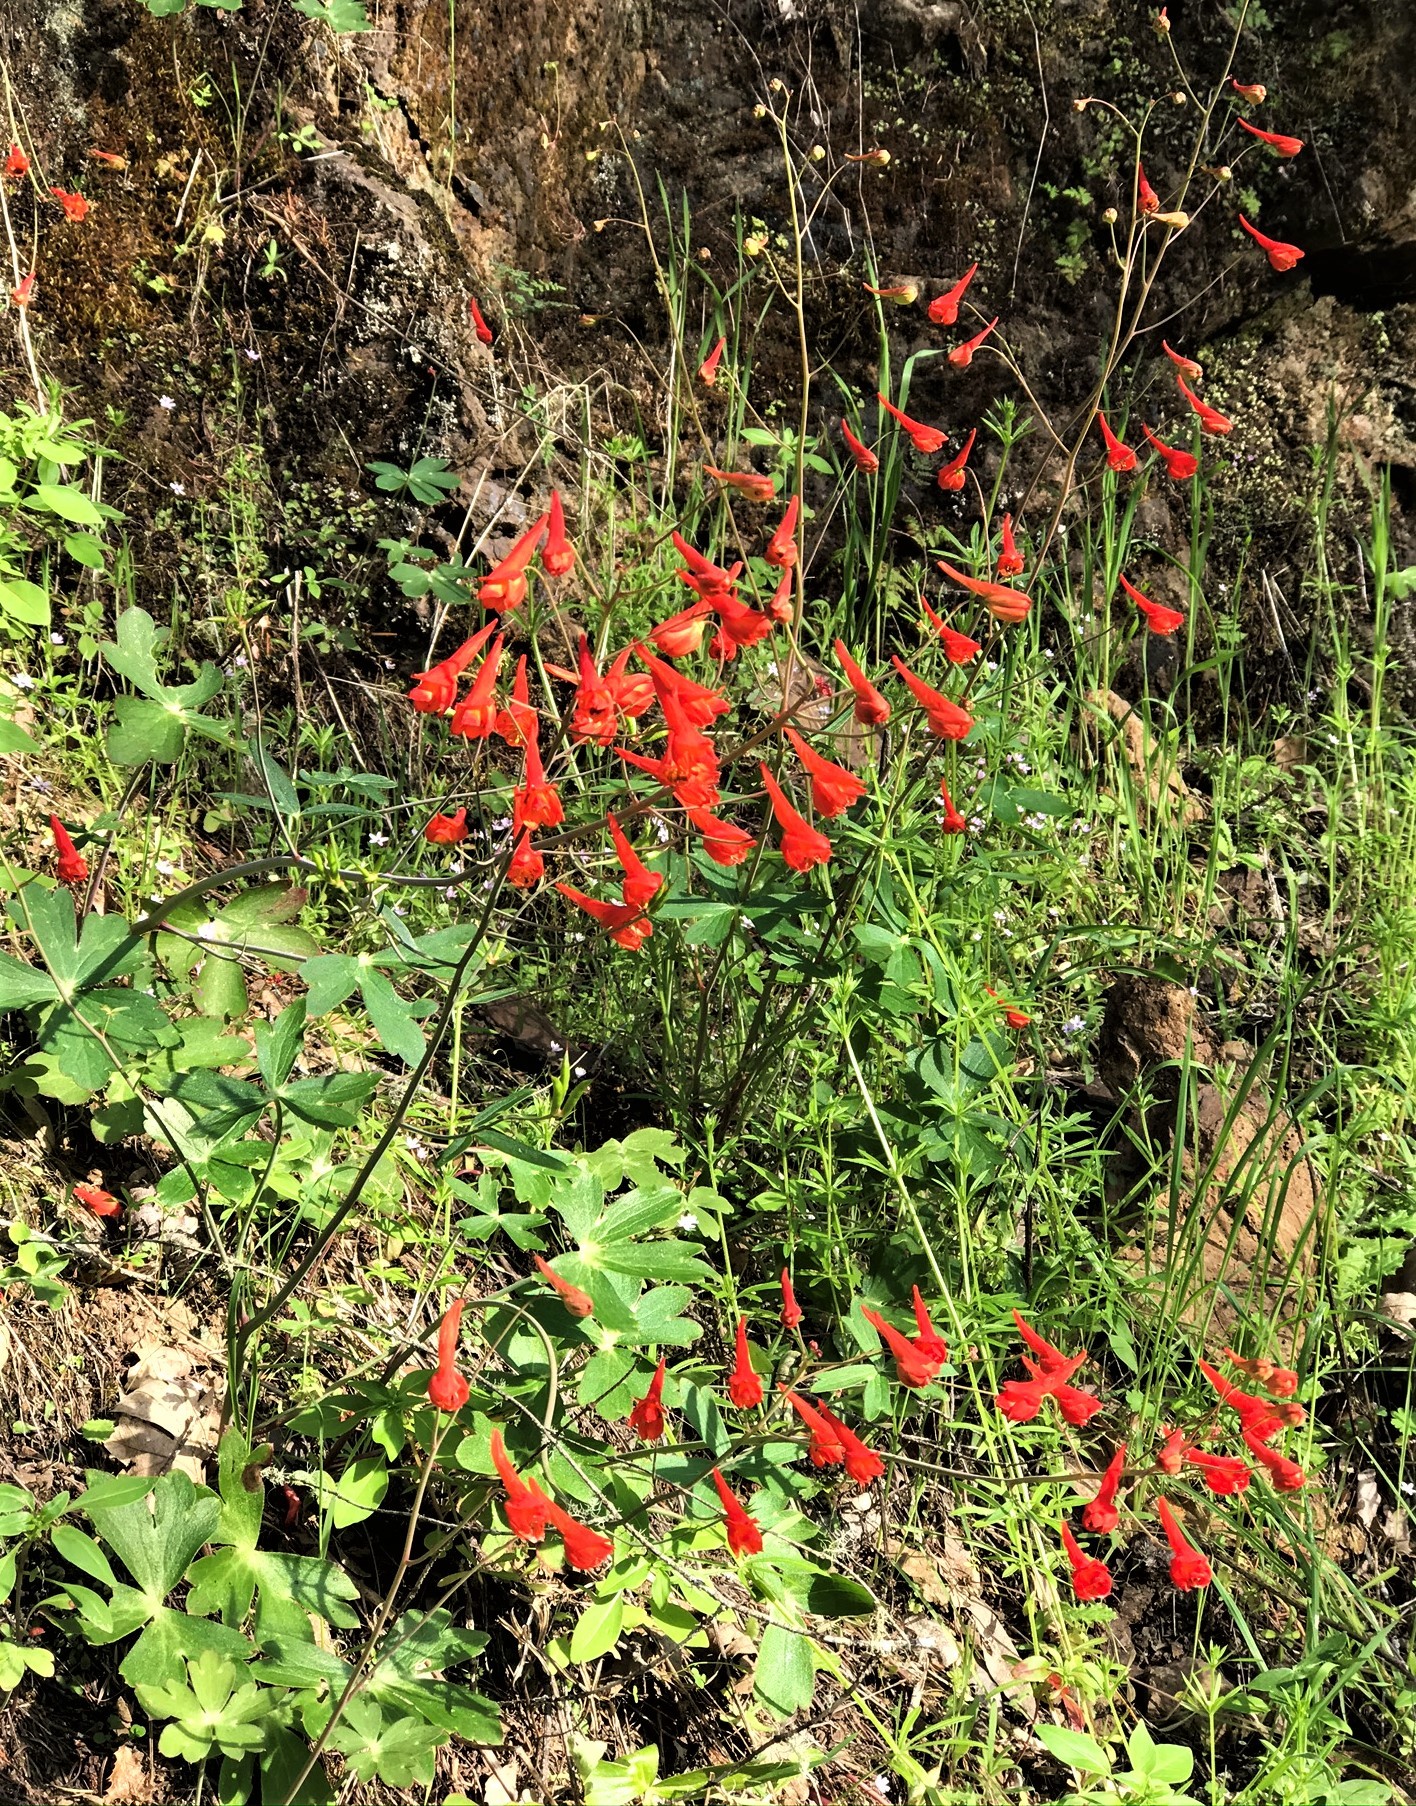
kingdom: Plantae
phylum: Tracheophyta
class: Magnoliopsida
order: Ranunculales
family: Ranunculaceae
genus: Delphinium
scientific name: Delphinium nudicaule
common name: Red larkspur
